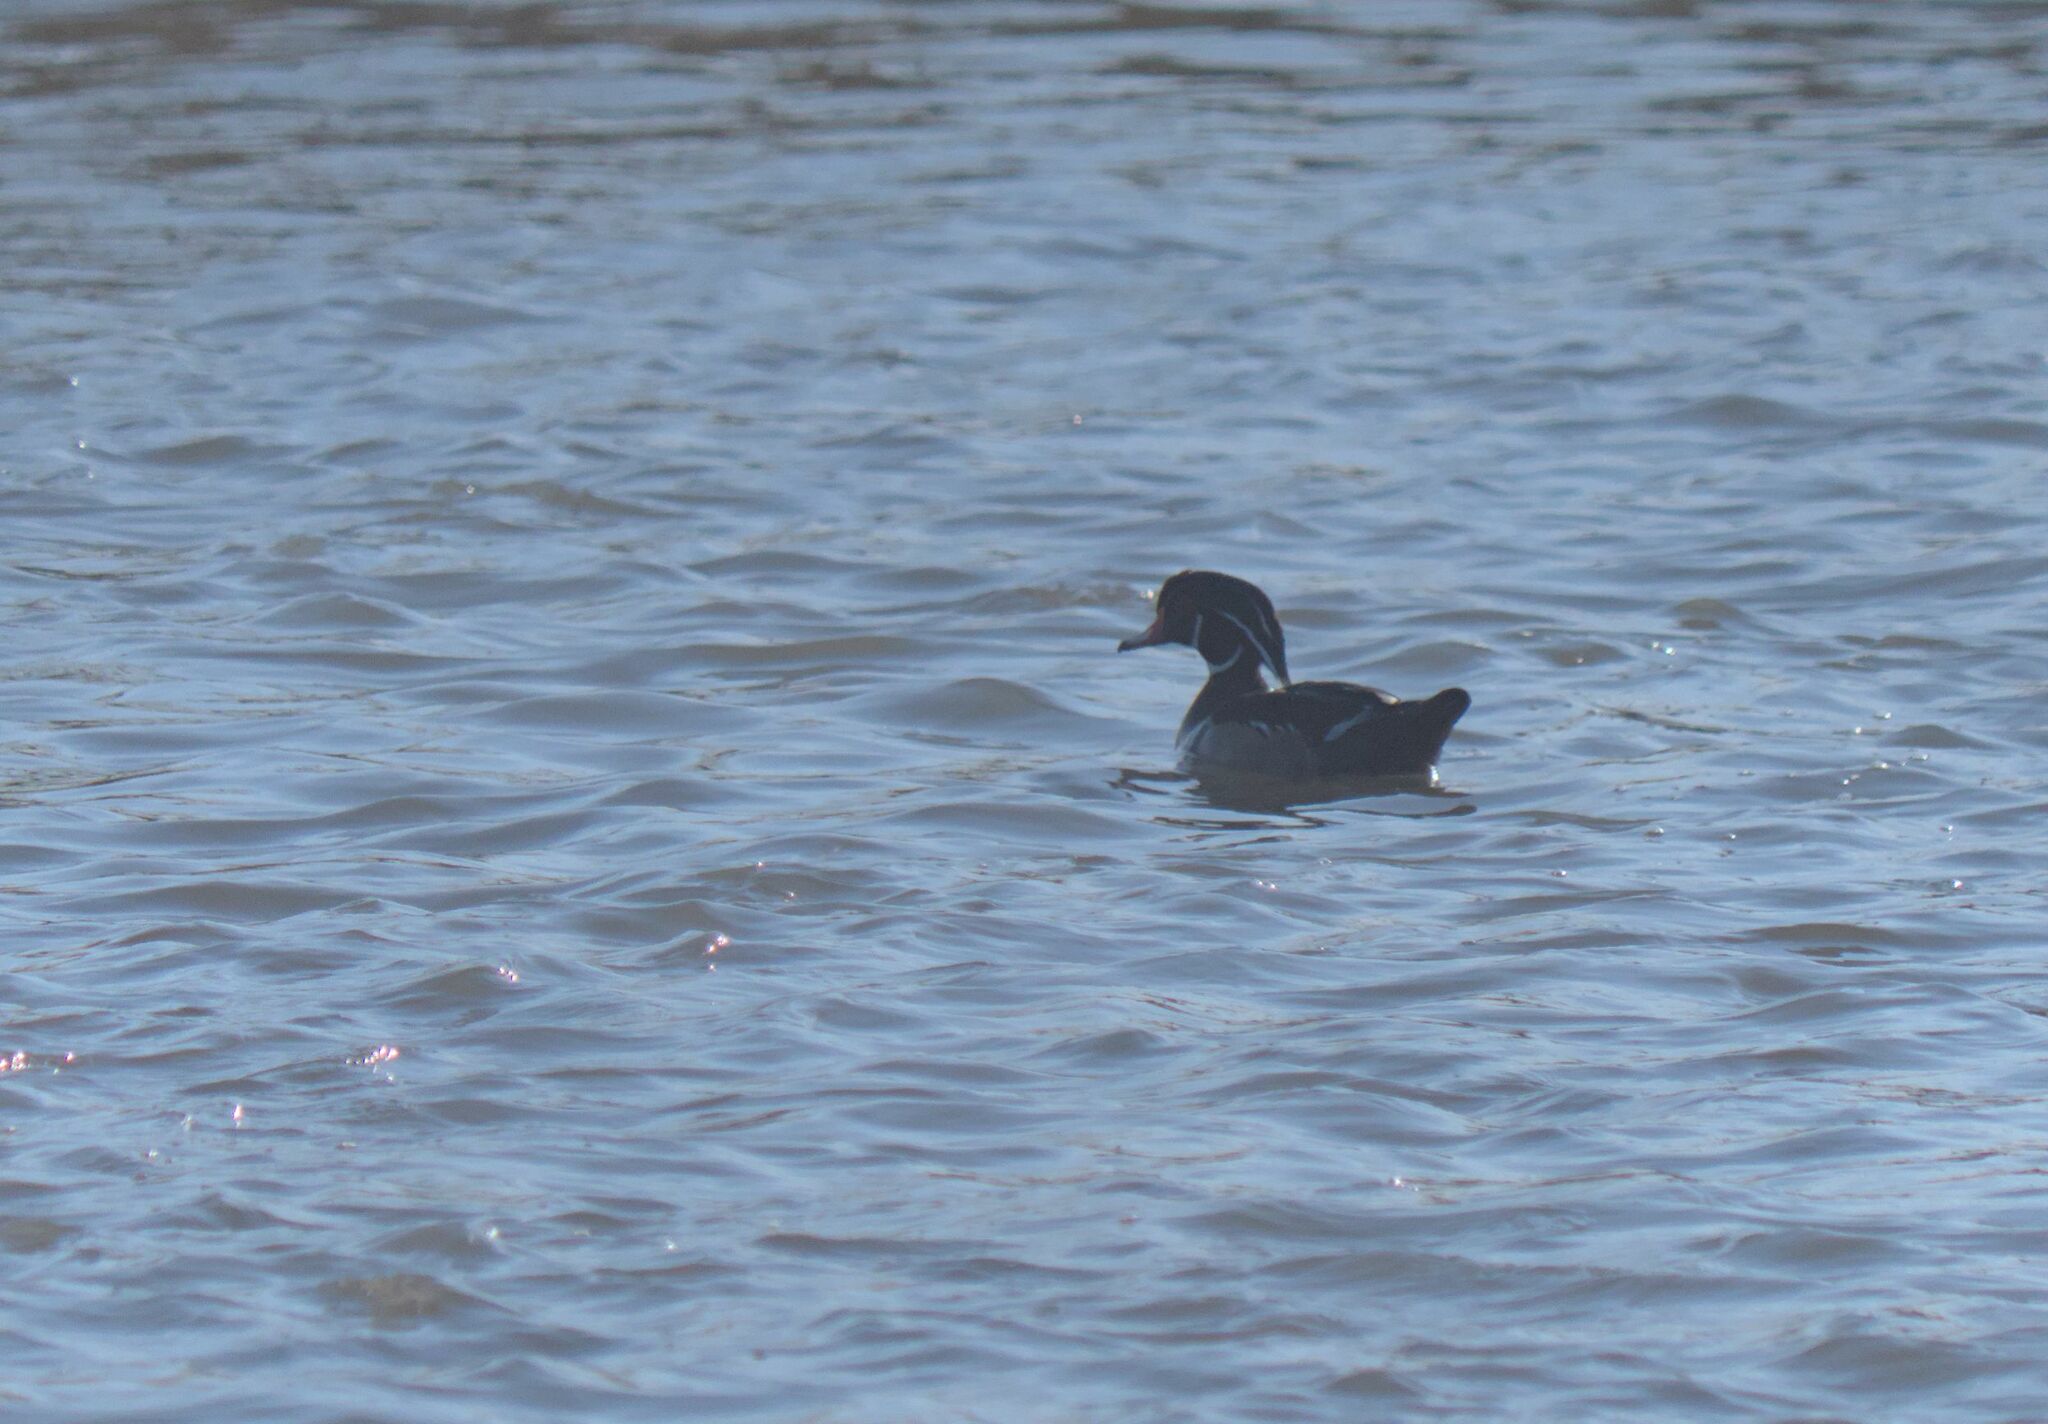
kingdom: Animalia
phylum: Chordata
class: Aves
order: Anseriformes
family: Anatidae
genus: Aix
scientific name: Aix sponsa
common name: Wood duck
